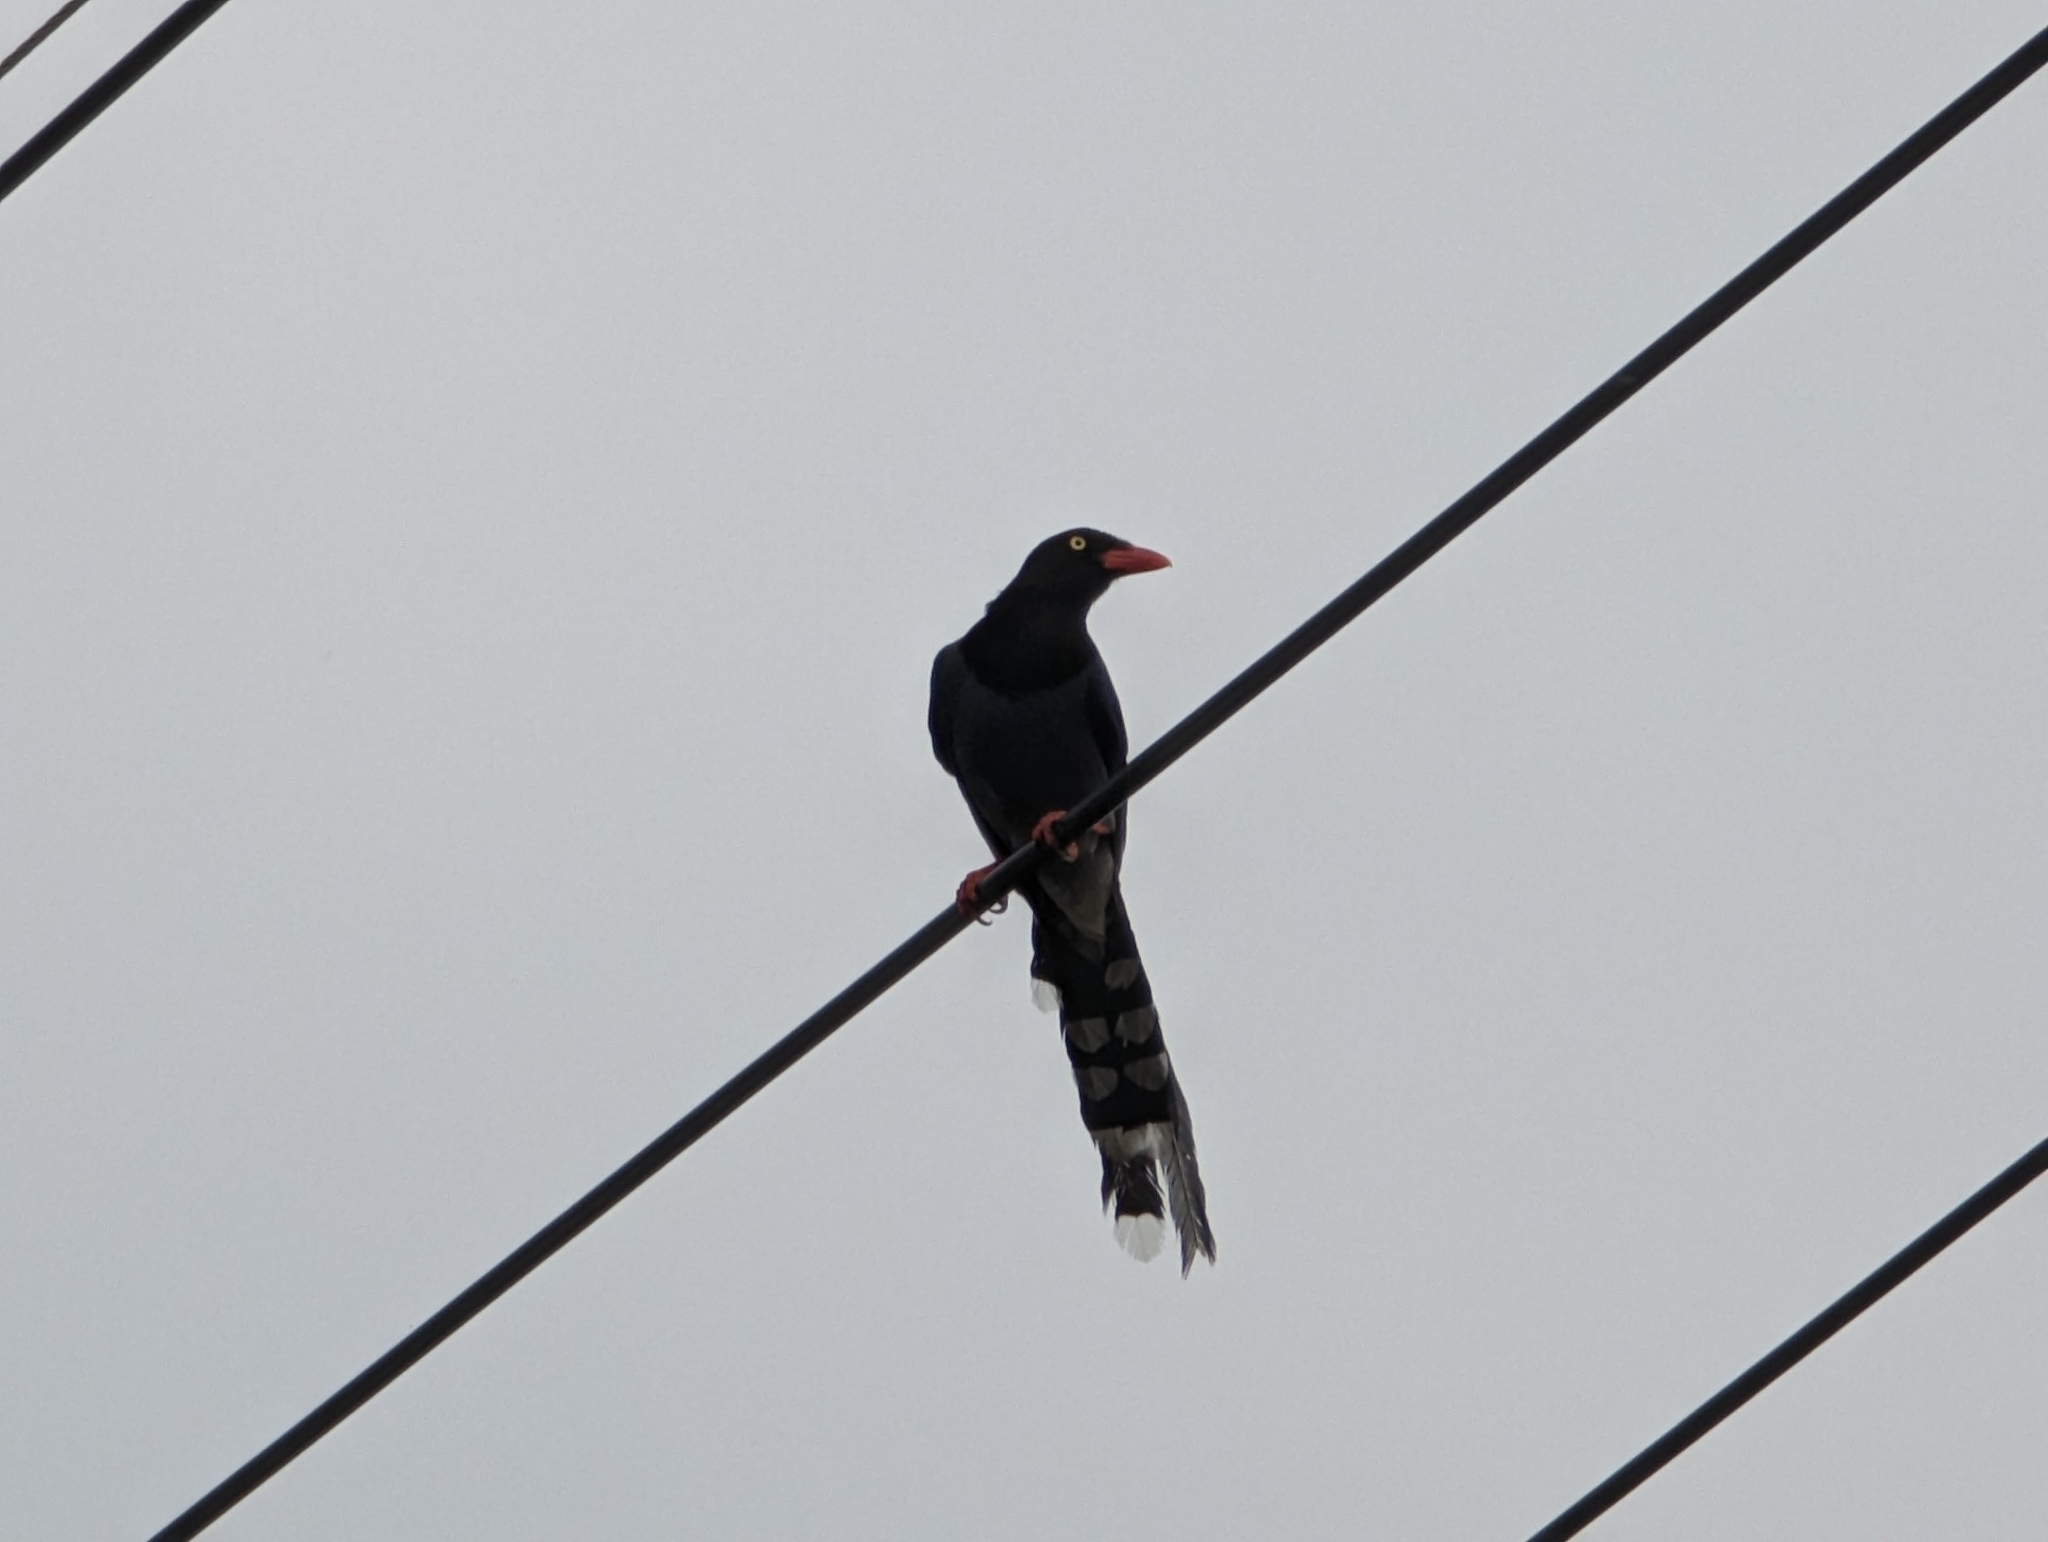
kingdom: Animalia
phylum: Chordata
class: Aves
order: Passeriformes
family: Corvidae
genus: Urocissa
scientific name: Urocissa caerulea
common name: Taiwan blue magpie
